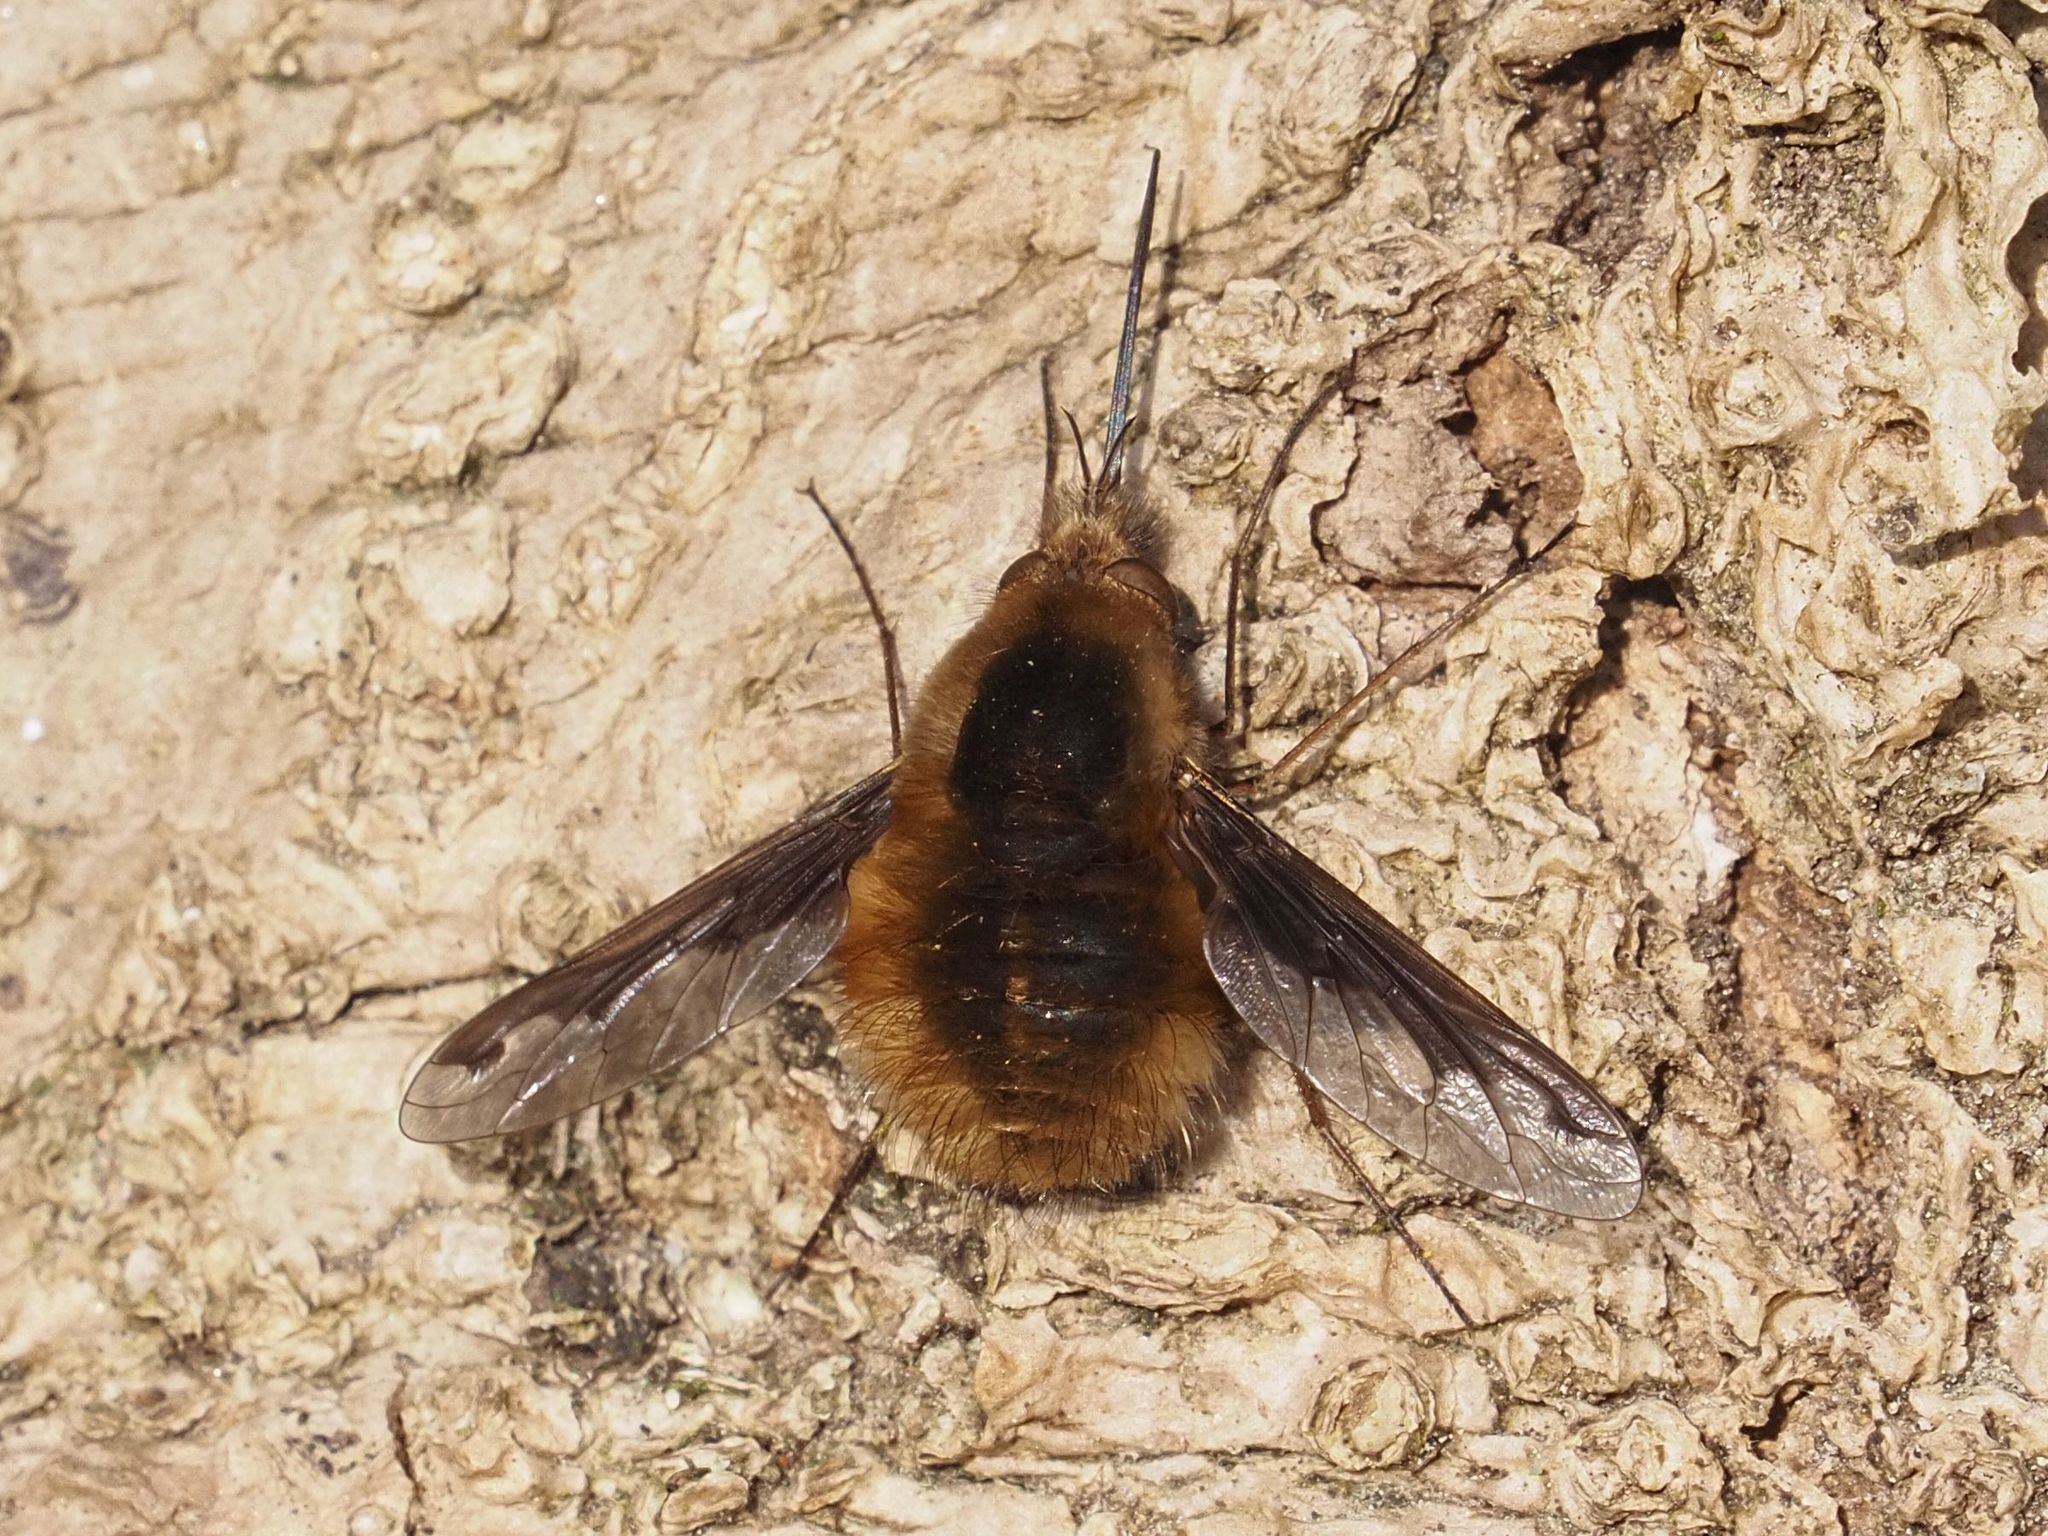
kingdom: Animalia
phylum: Arthropoda
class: Insecta
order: Diptera
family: Bombyliidae
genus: Bombylius
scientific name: Bombylius major
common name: Bee fly
